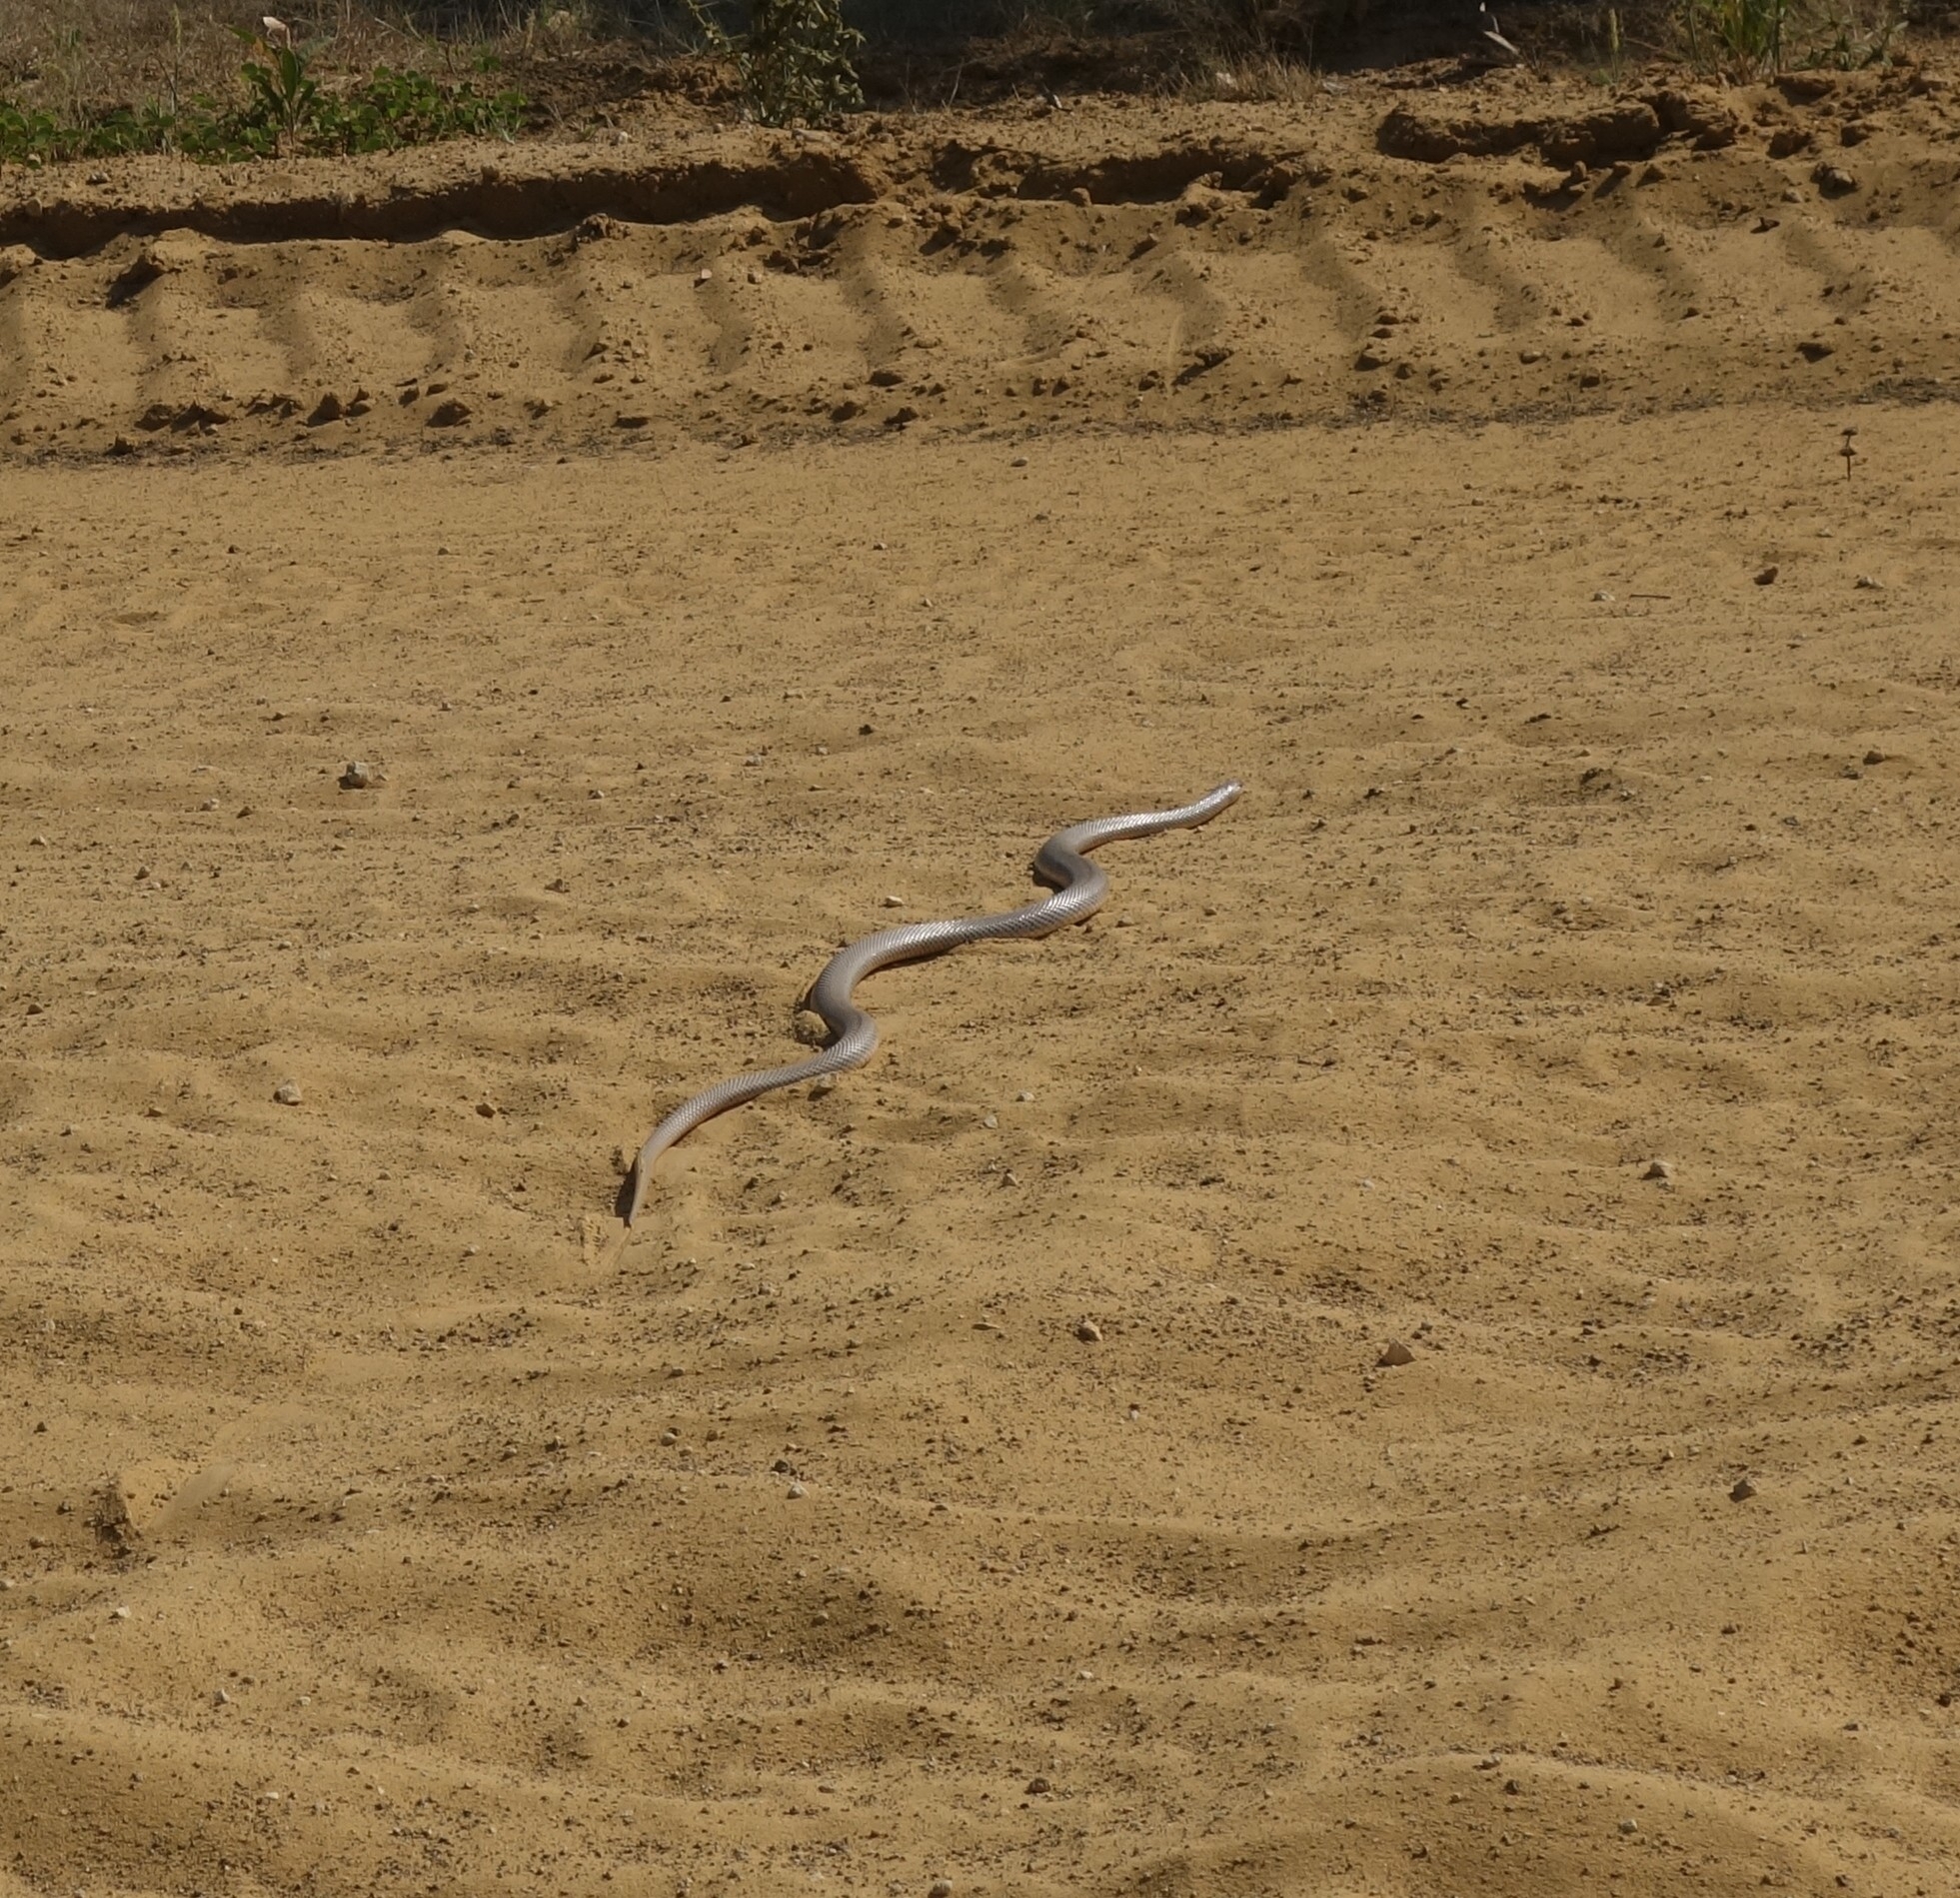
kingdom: Animalia
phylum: Chordata
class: Squamata
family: Pseudaspididae
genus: Pseudaspis
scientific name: Pseudaspis cana
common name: Mole snake
